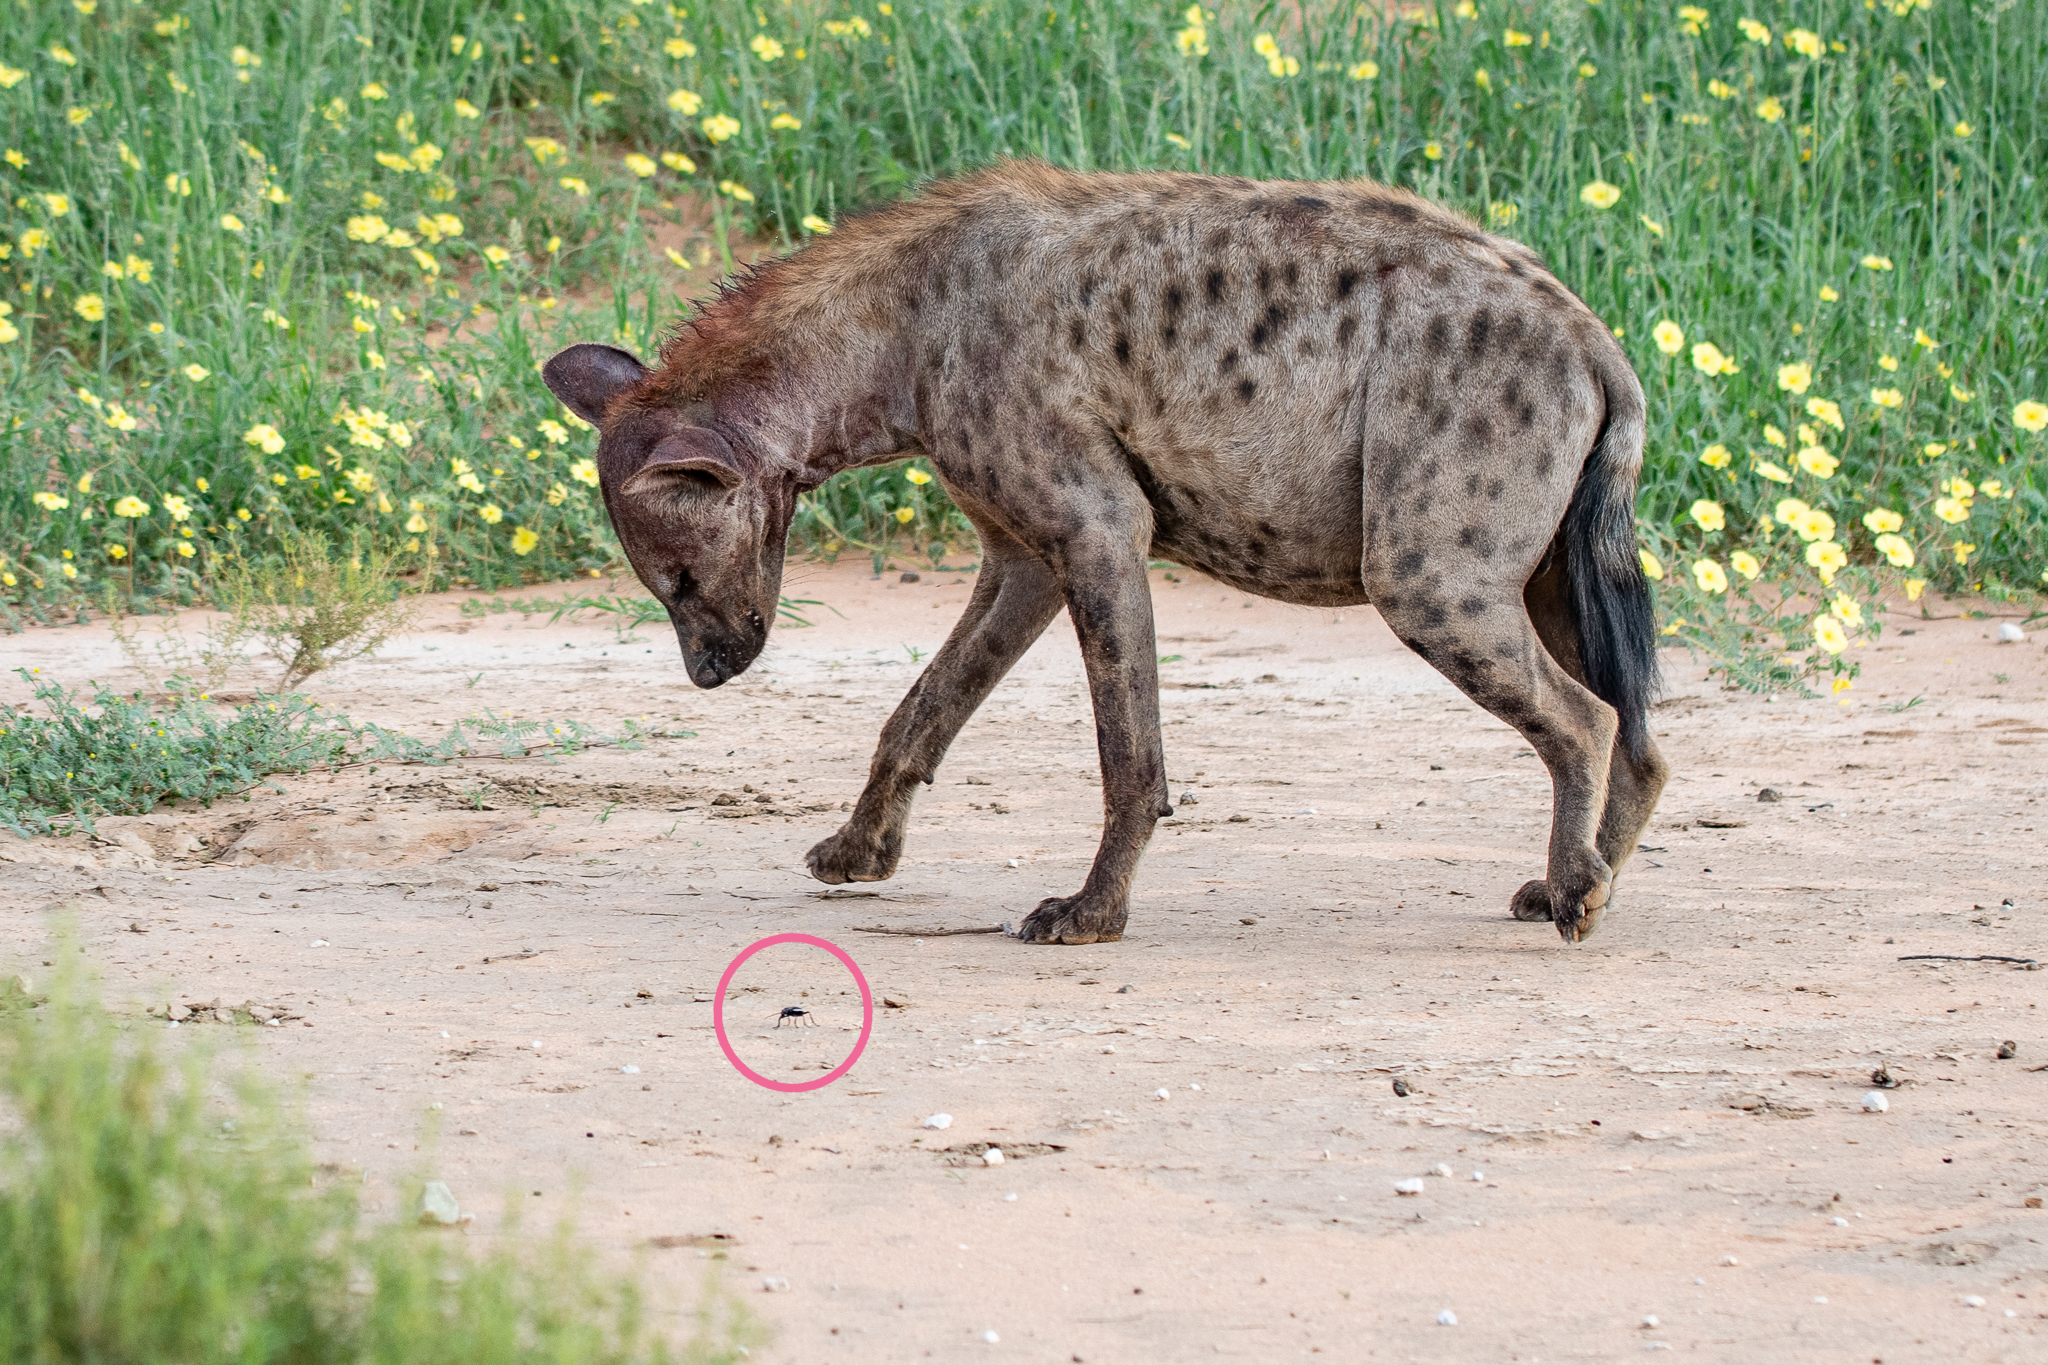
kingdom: Animalia
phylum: Chordata
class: Mammalia
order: Carnivora
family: Hyaenidae
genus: Crocuta
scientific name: Crocuta crocuta
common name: Spotted hyaena
